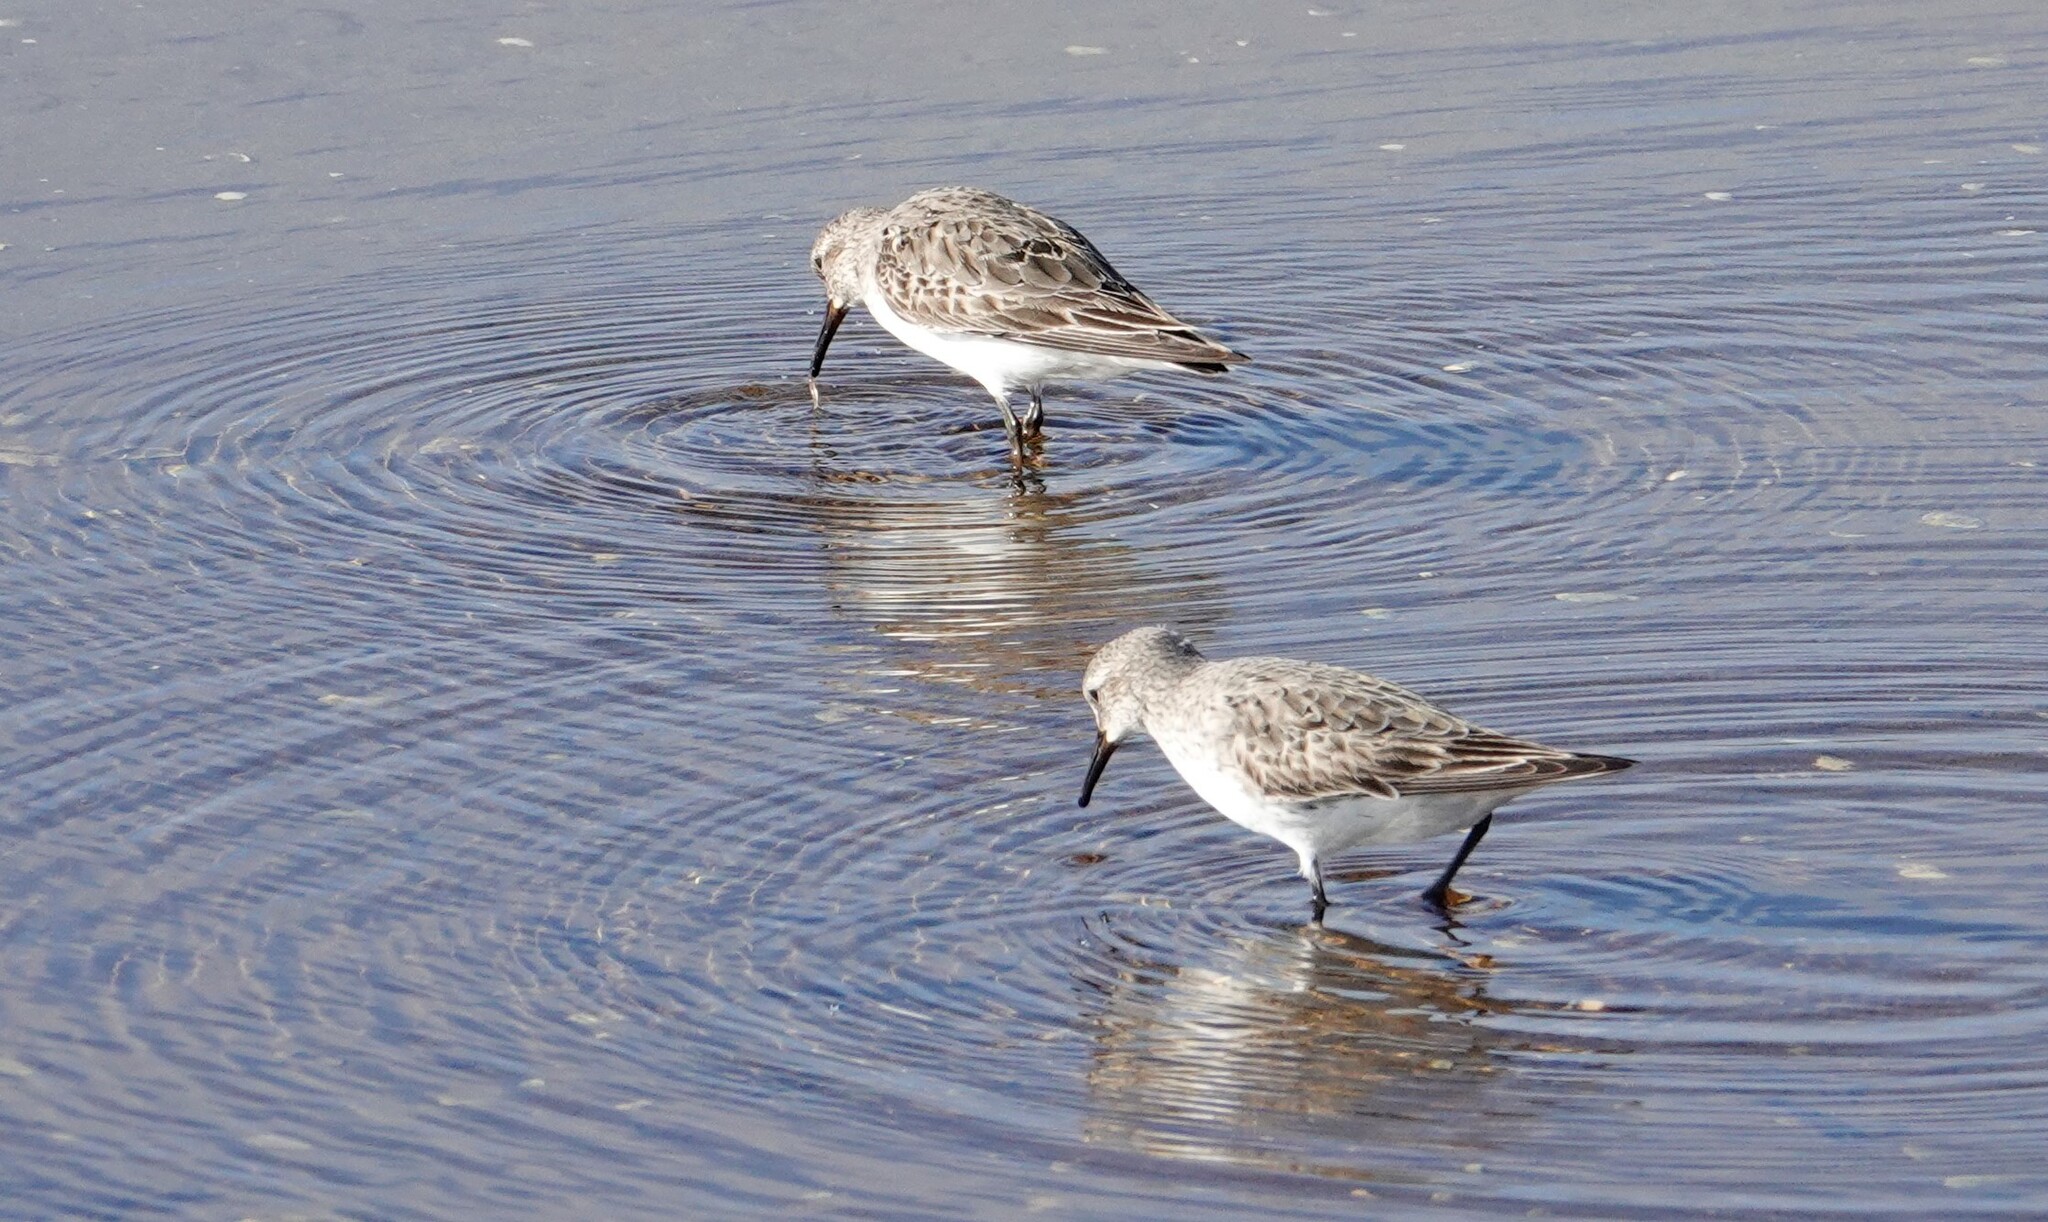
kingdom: Animalia
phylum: Chordata
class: Aves
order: Charadriiformes
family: Scolopacidae
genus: Calidris
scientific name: Calidris fuscicollis
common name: White-rumped sandpiper
